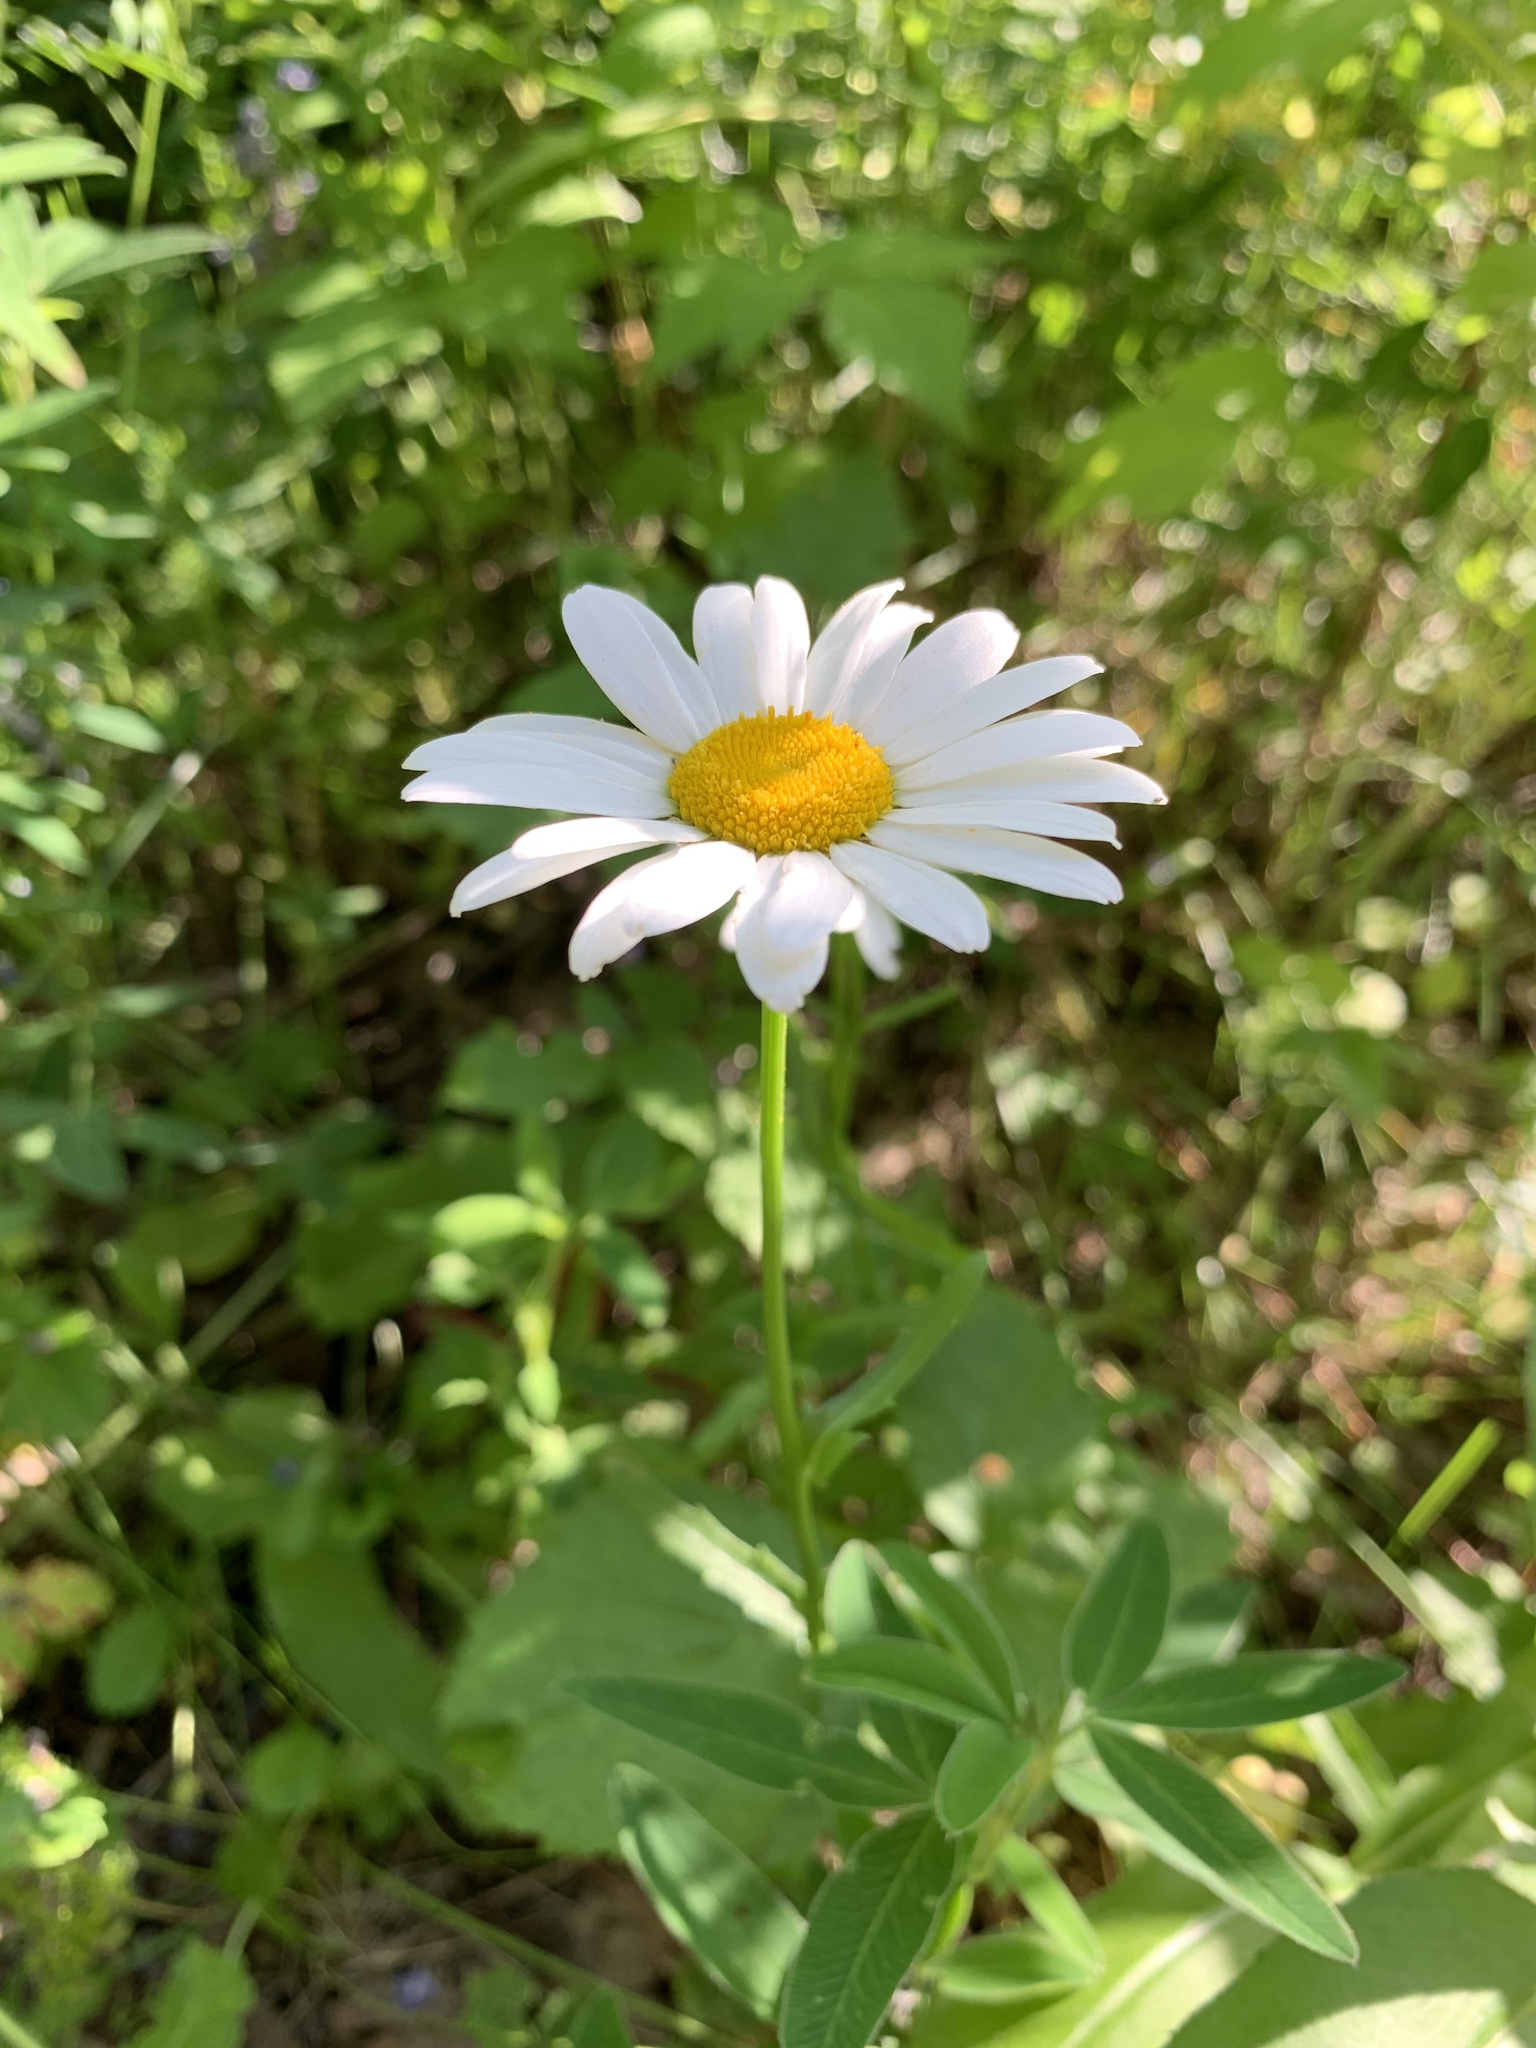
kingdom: Plantae
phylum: Tracheophyta
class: Magnoliopsida
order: Asterales
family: Asteraceae
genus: Leucanthemum
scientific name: Leucanthemum ircutianum
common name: Daisy
